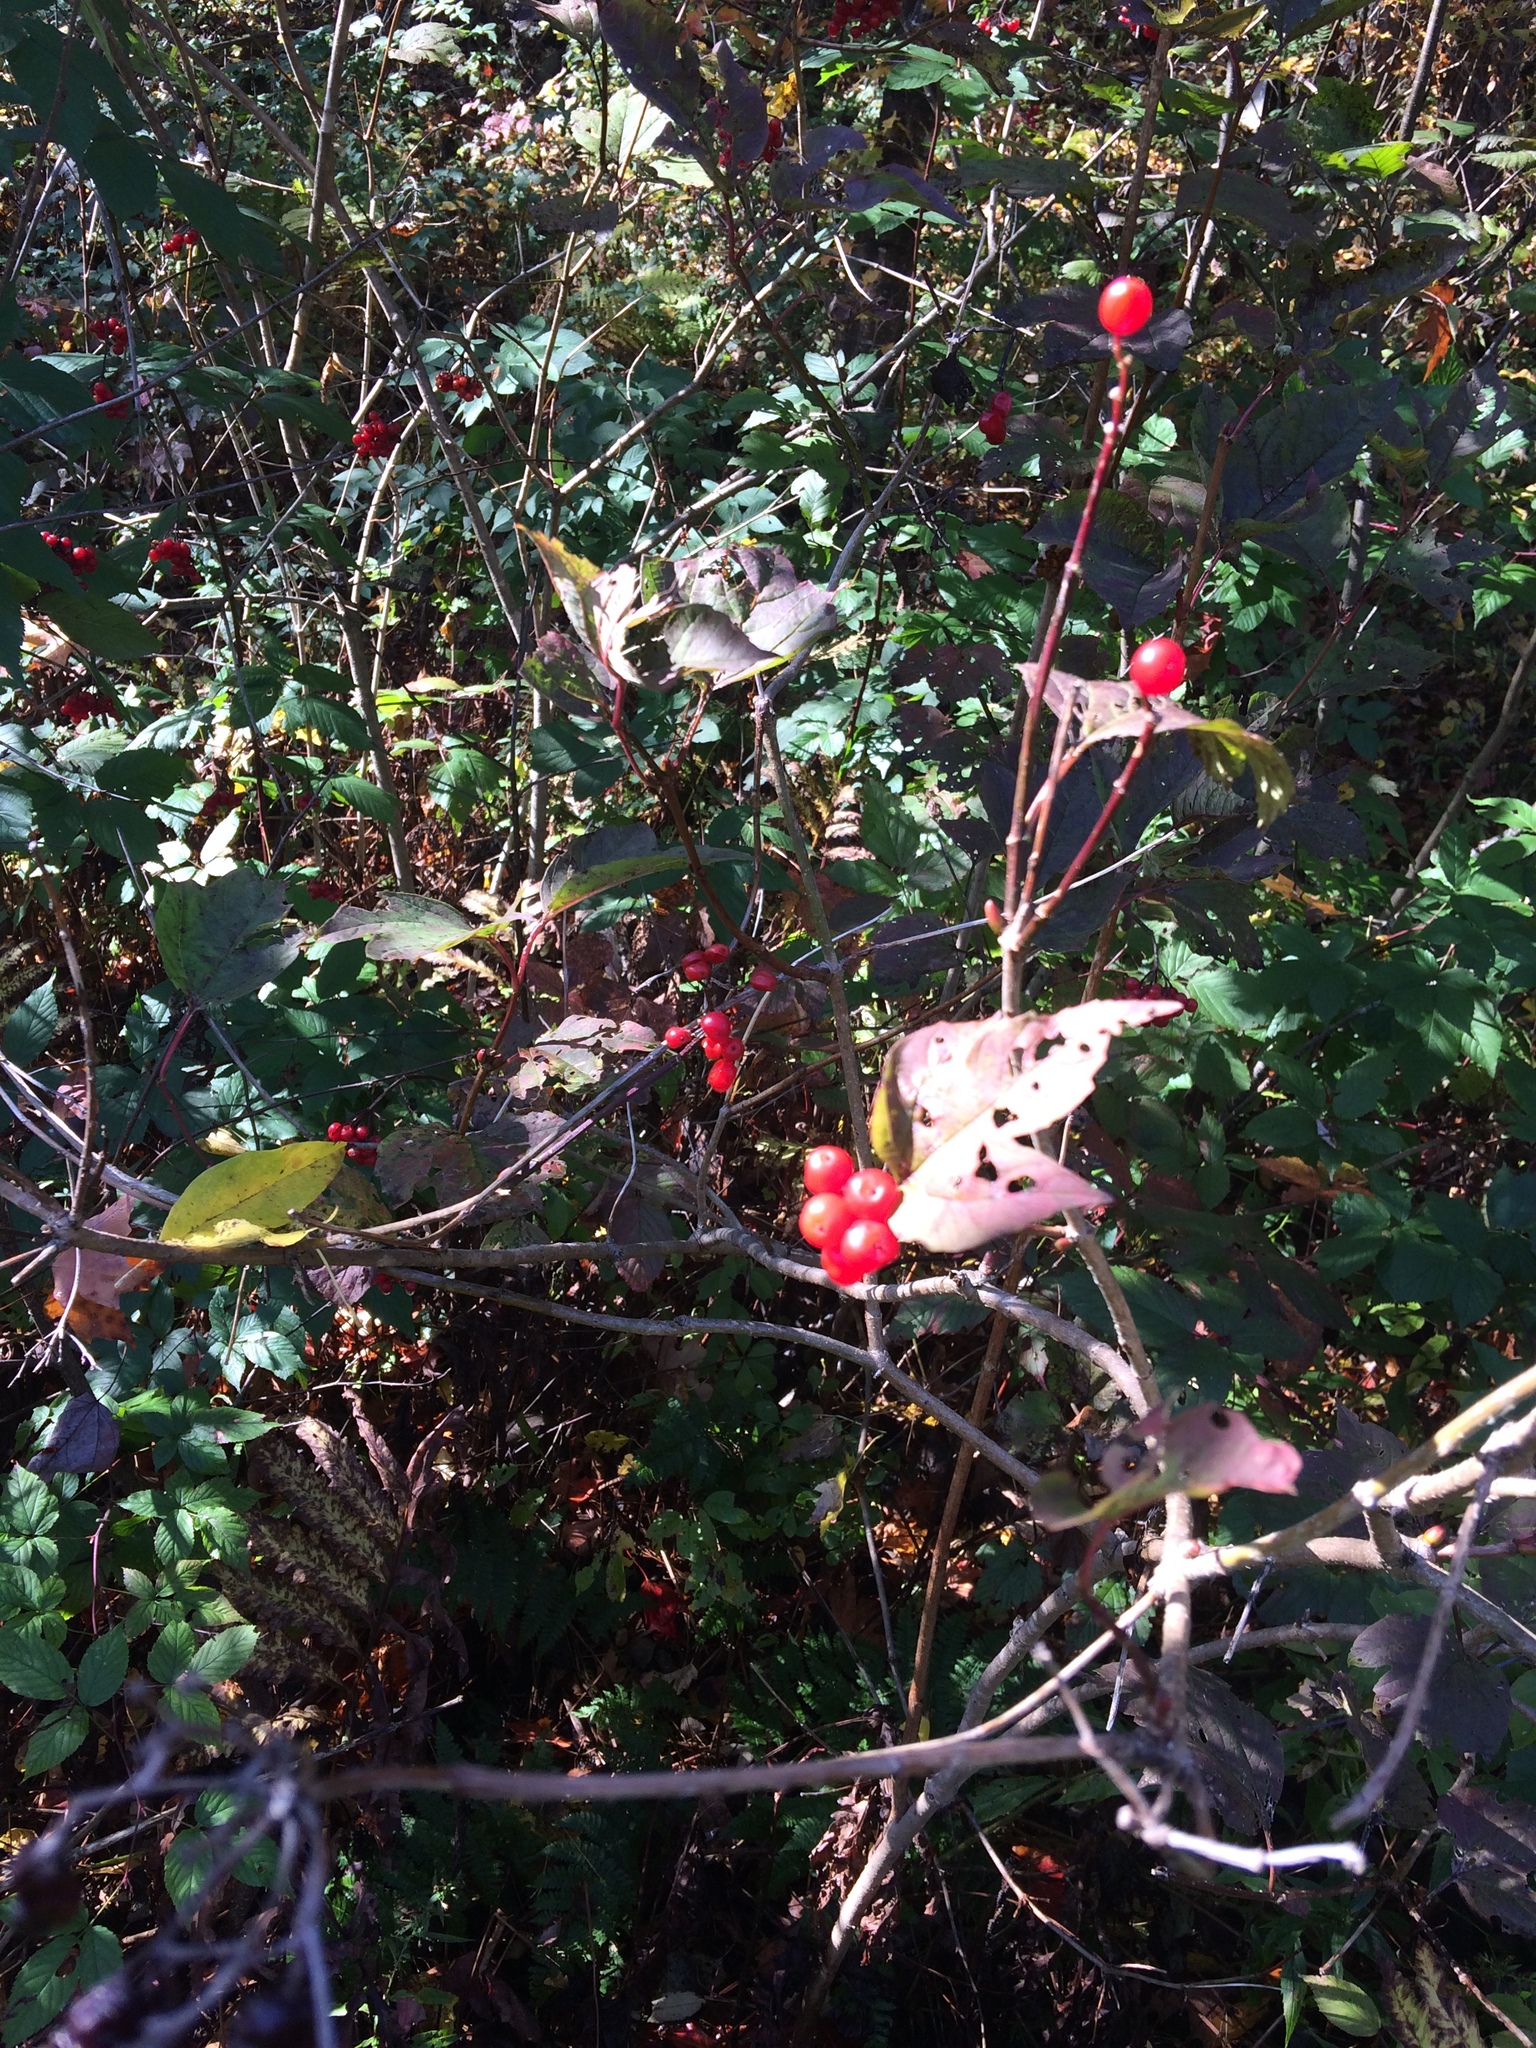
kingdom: Plantae
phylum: Tracheophyta
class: Magnoliopsida
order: Dipsacales
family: Viburnaceae
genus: Viburnum
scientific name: Viburnum opulus
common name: Guelder-rose
